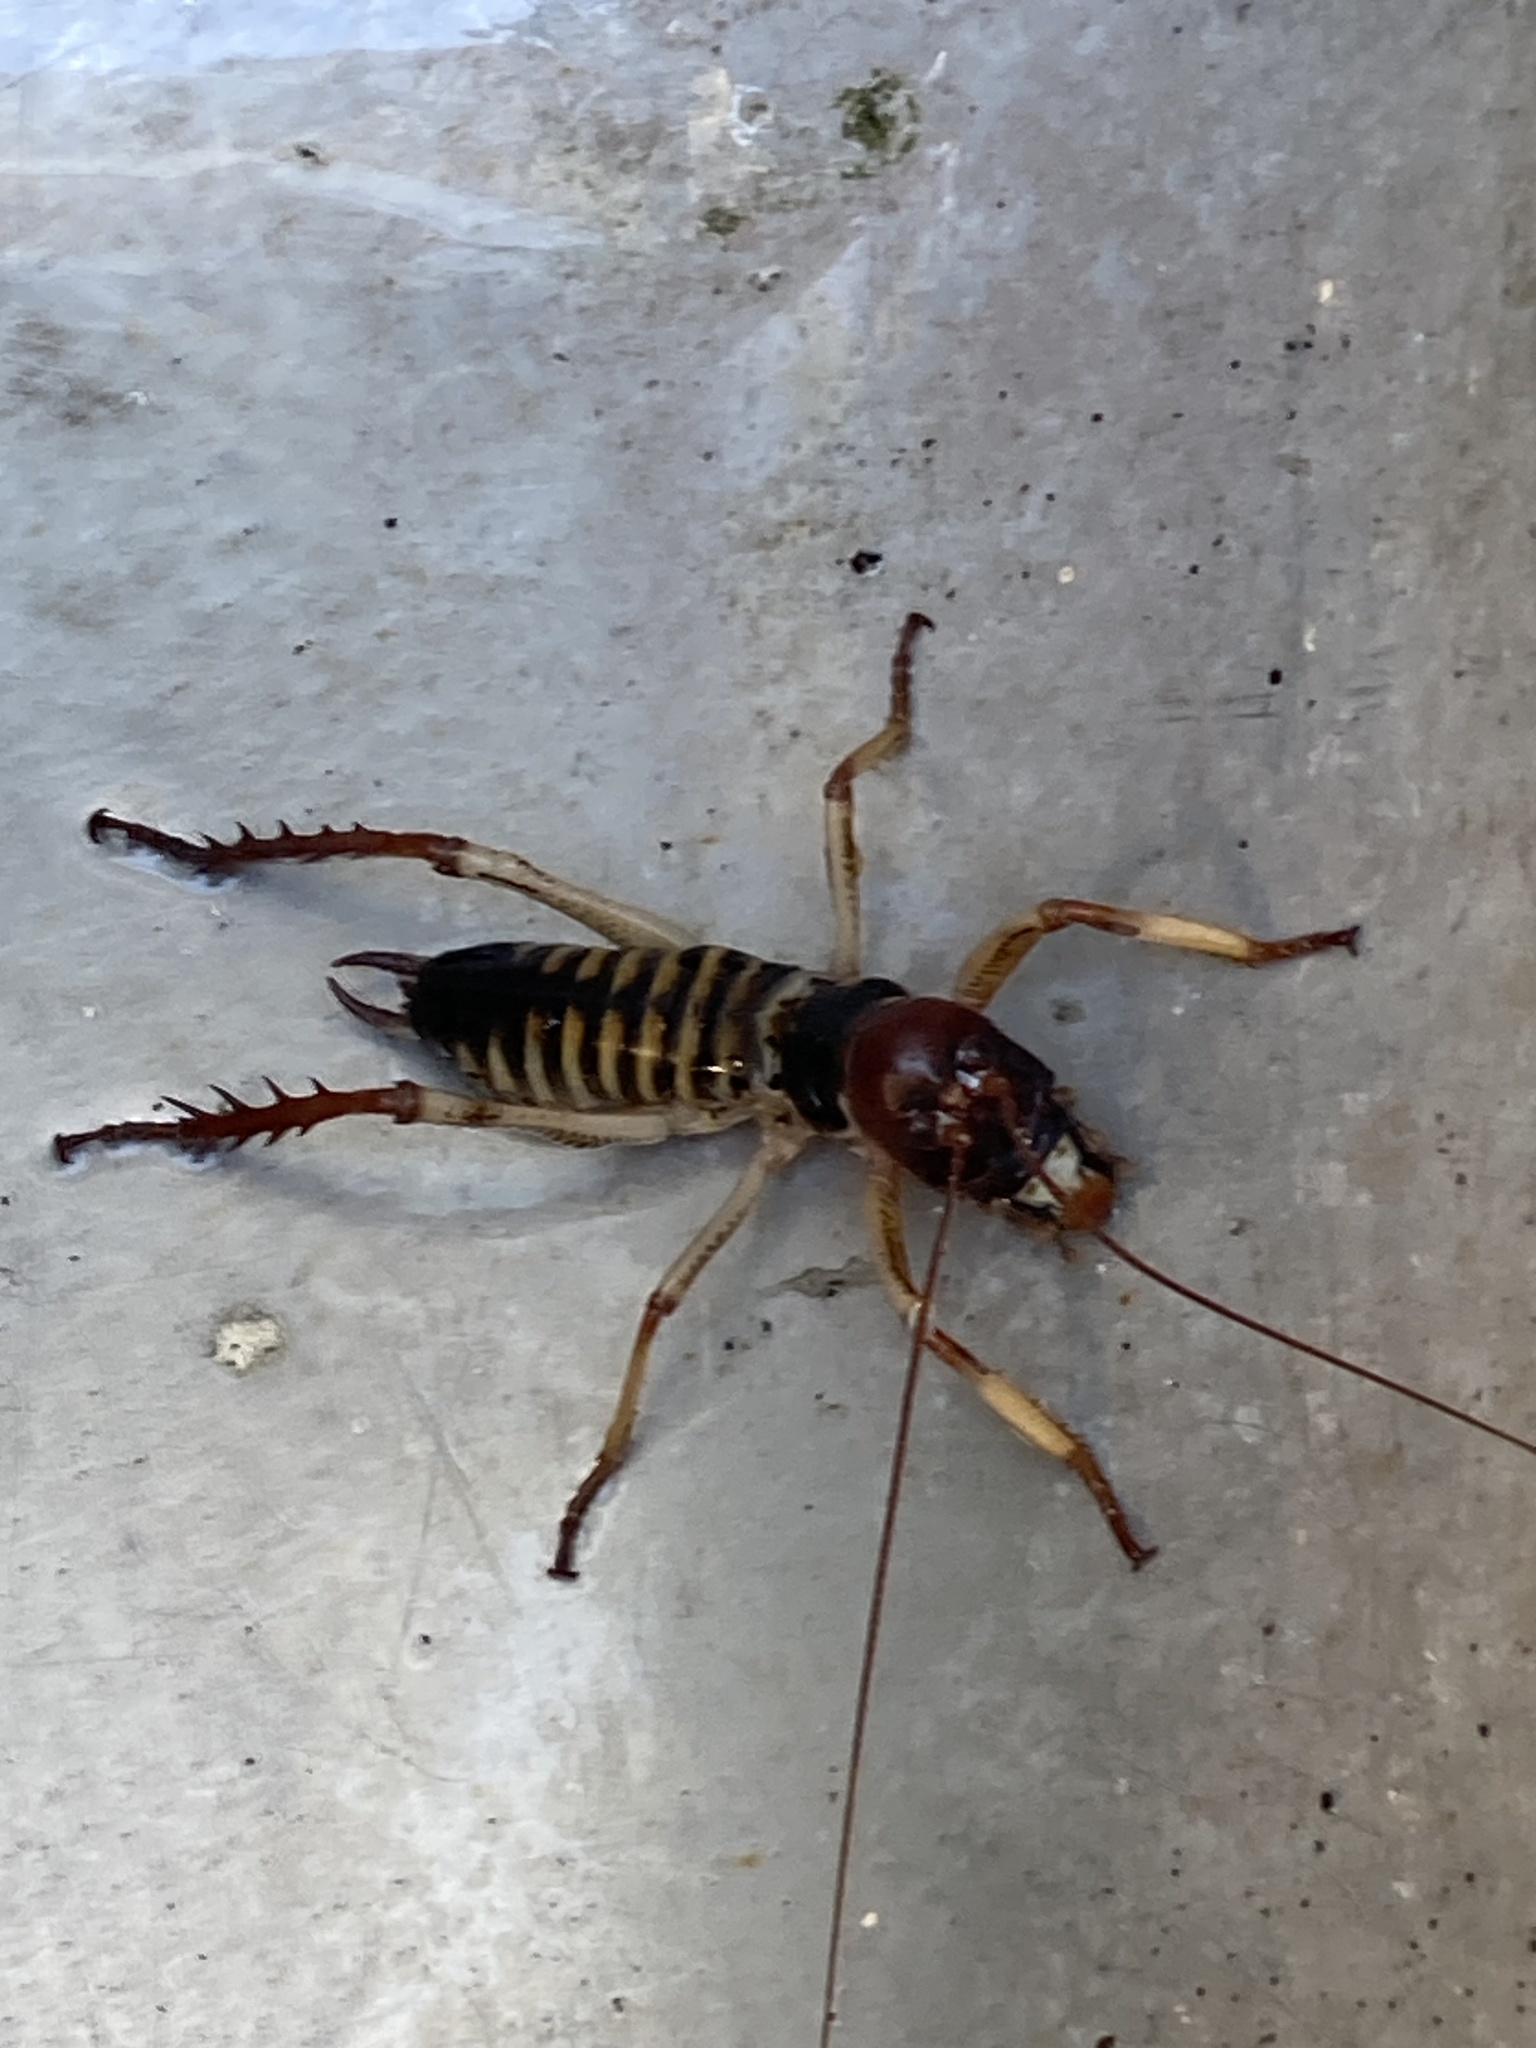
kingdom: Animalia
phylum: Arthropoda
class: Insecta
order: Orthoptera
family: Anostostomatidae
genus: Hemideina
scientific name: Hemideina crassidens
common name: Wellington tree weta
